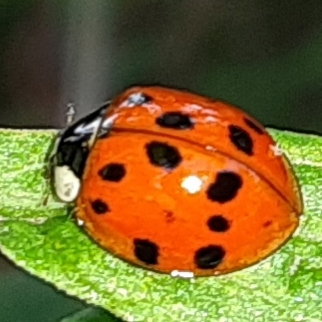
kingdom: Animalia
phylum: Arthropoda
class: Insecta
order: Coleoptera
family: Coccinellidae
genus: Harmonia
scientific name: Harmonia axyridis
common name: Harlequin ladybird
